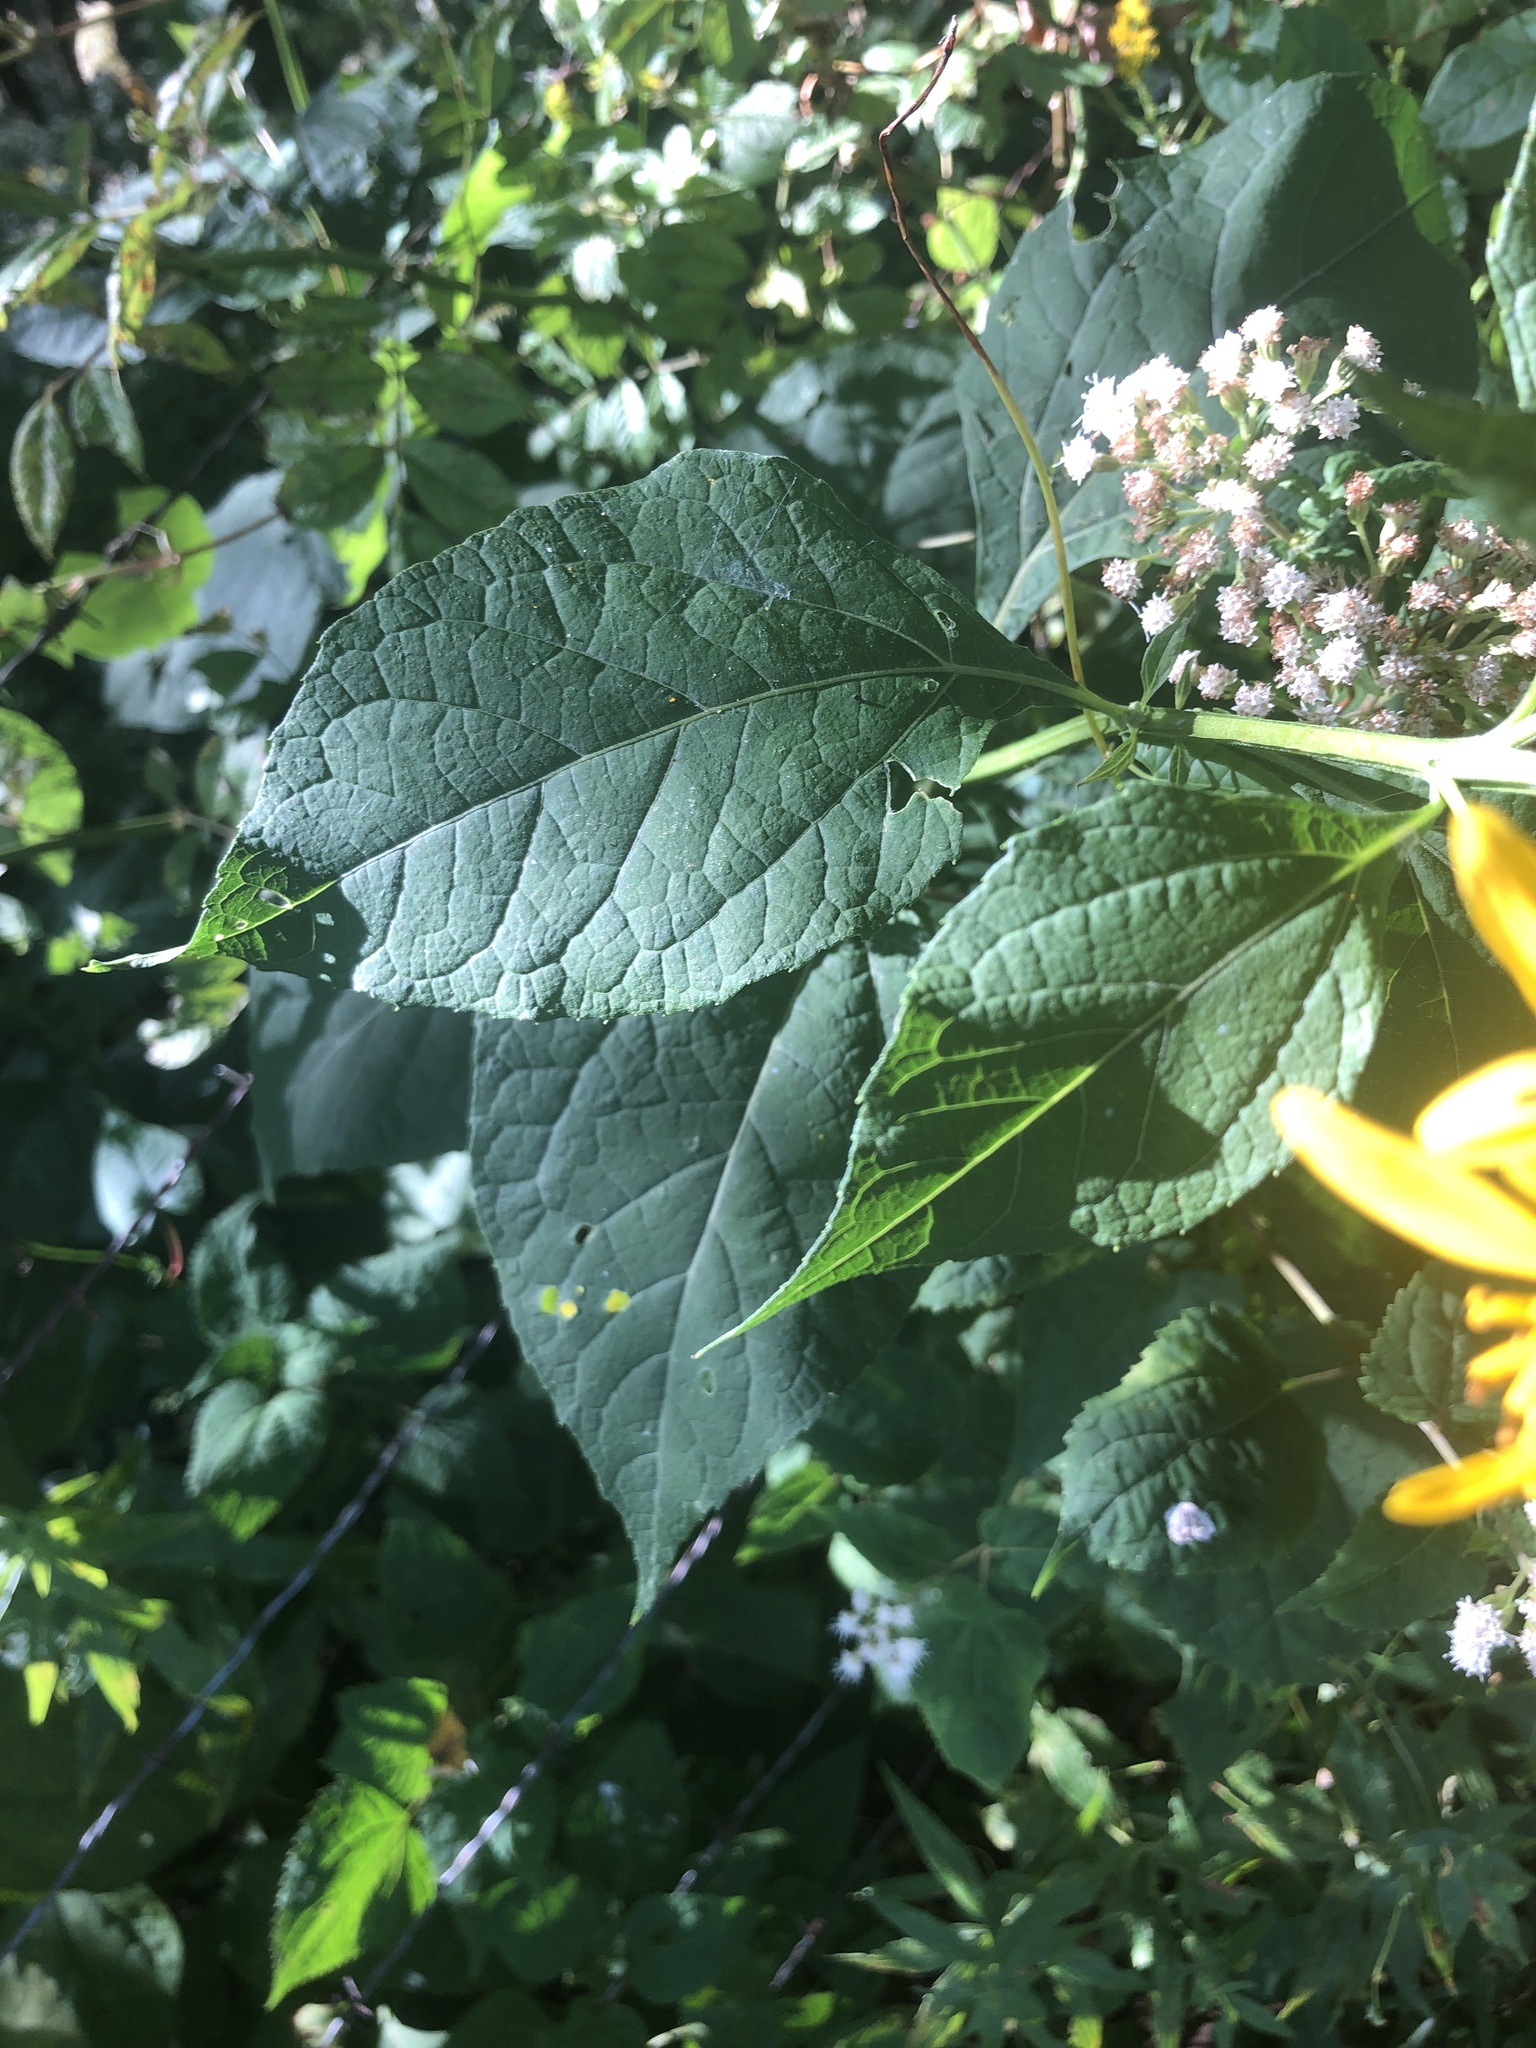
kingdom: Plantae
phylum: Tracheophyta
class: Magnoliopsida
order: Asterales
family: Asteraceae
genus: Verbesina
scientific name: Verbesina occidentalis
